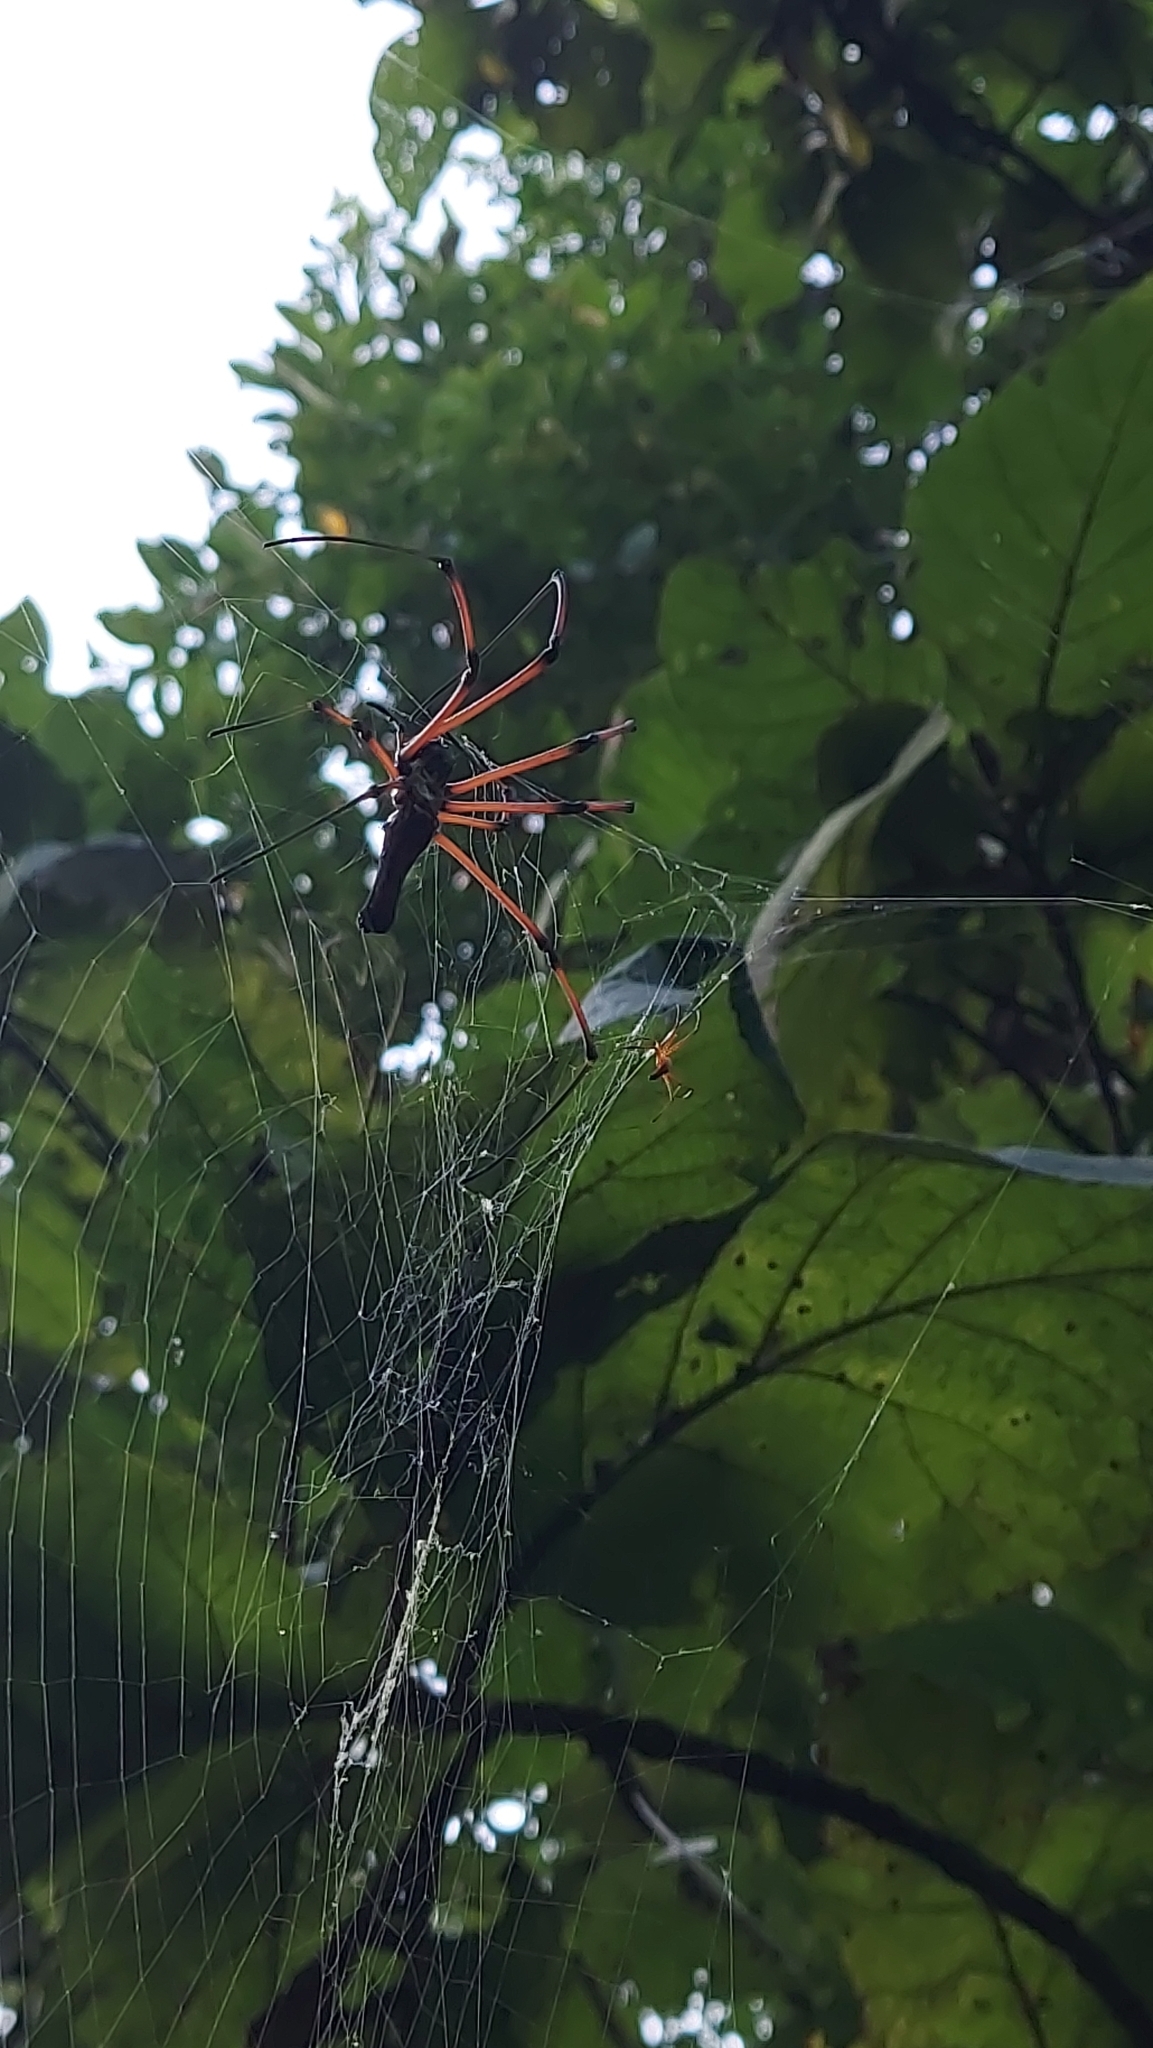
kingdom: Animalia
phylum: Arthropoda
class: Arachnida
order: Araneae
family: Araneidae
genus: Nephila
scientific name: Nephila kuhli
